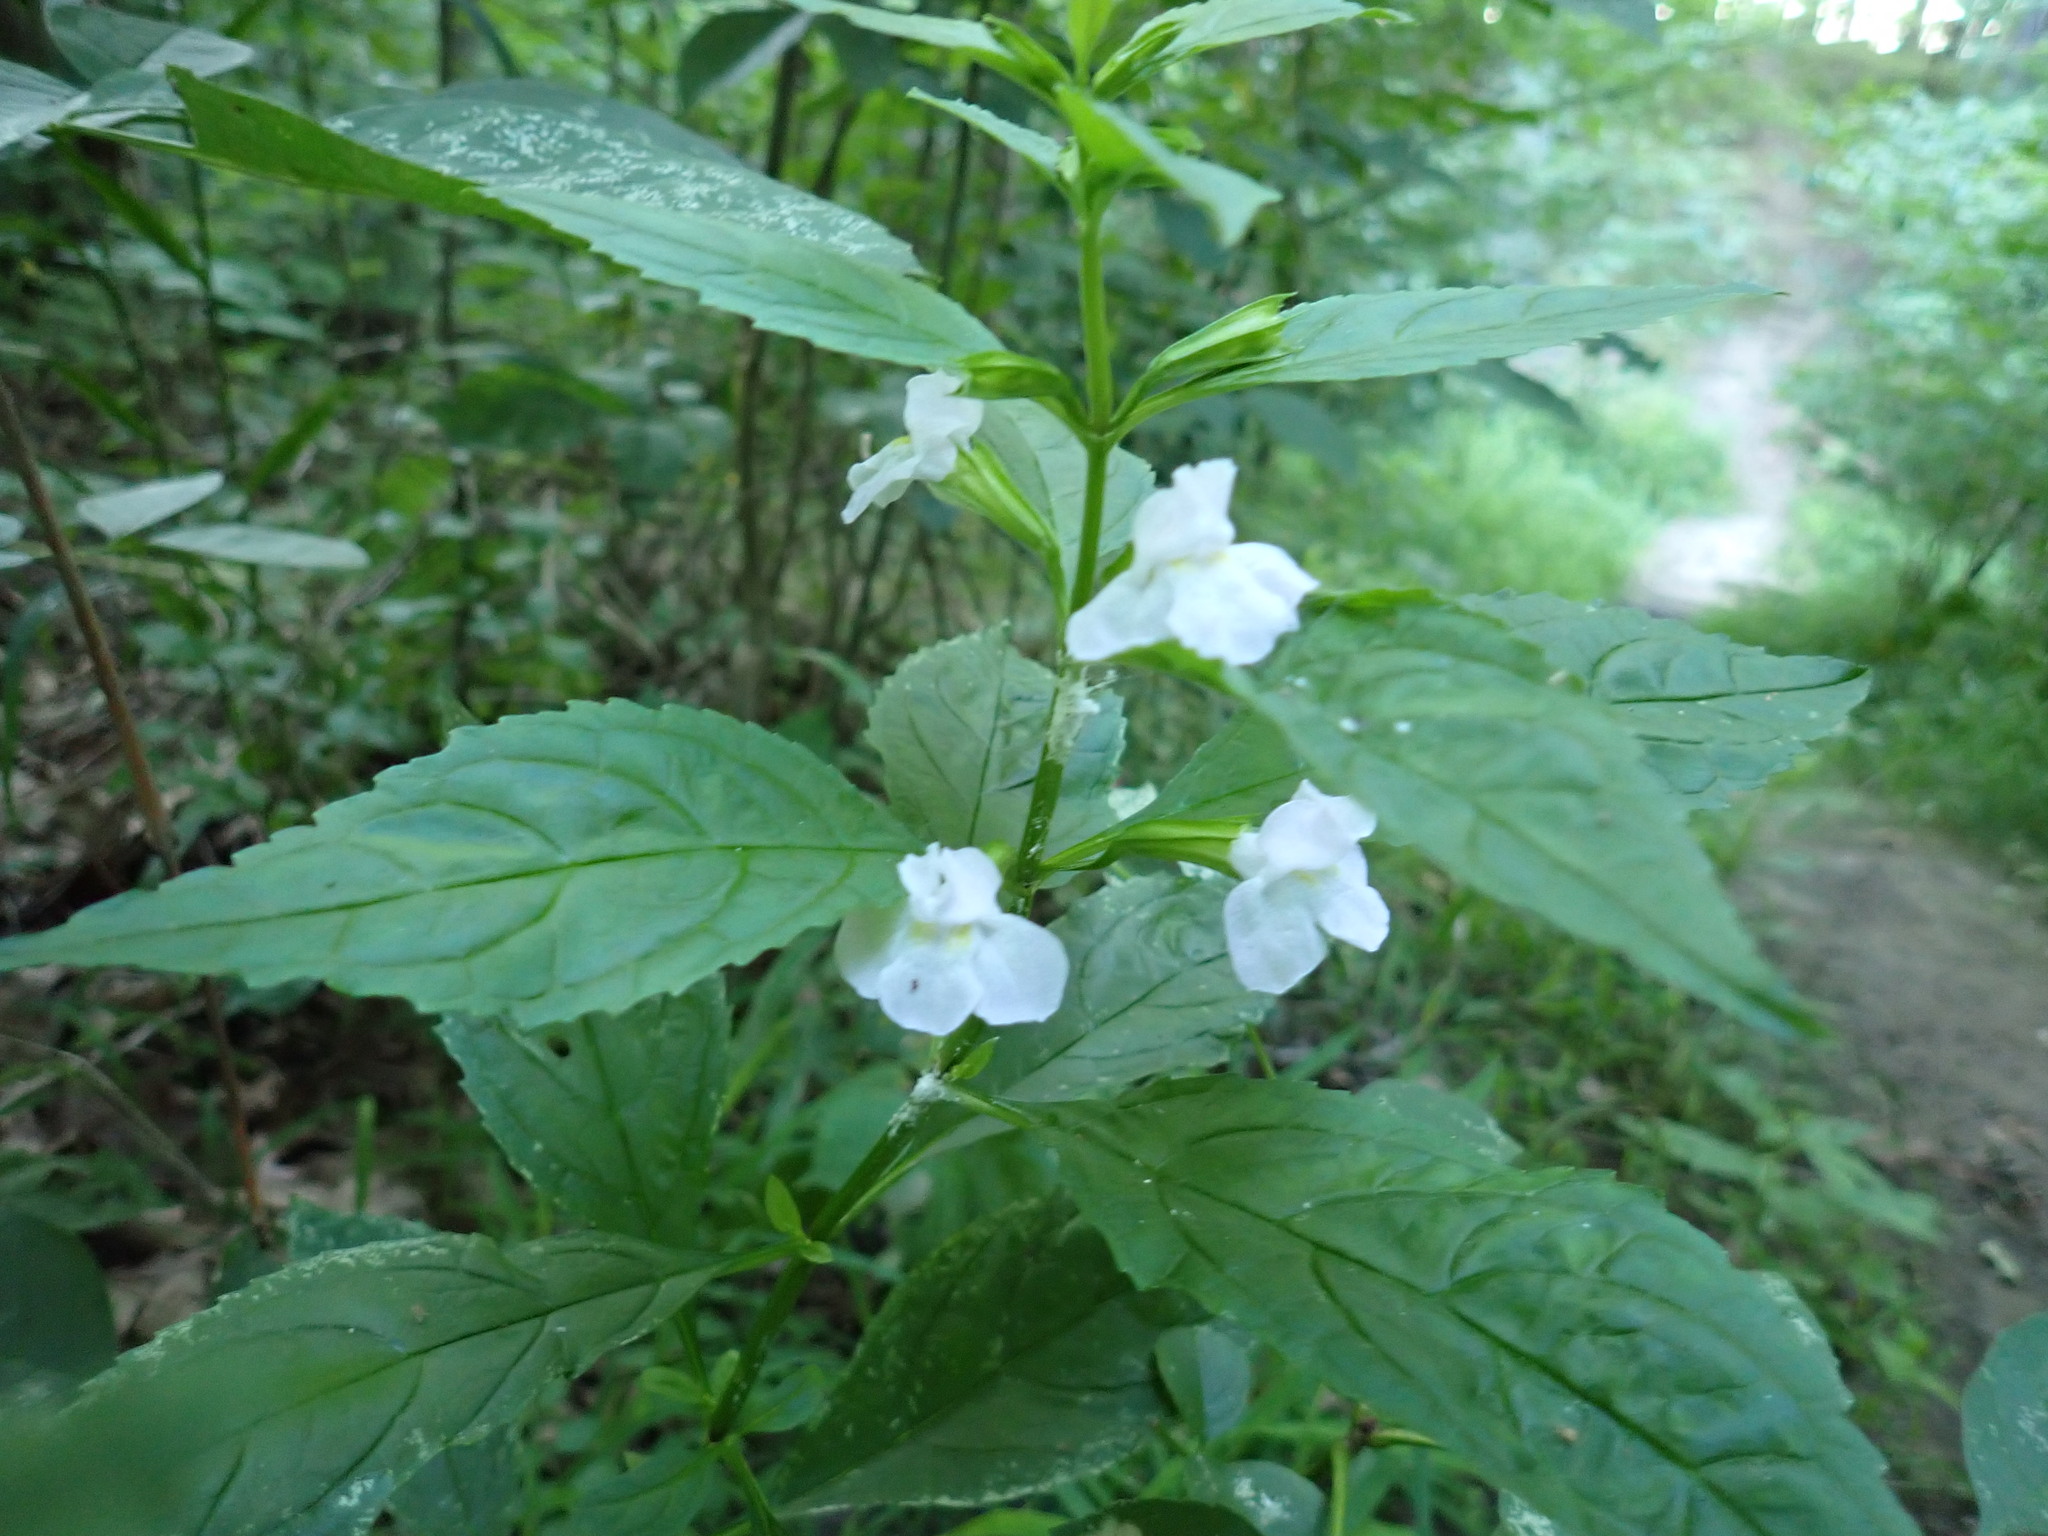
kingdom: Plantae
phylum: Tracheophyta
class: Magnoliopsida
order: Lamiales
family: Phrymaceae
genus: Mimulus
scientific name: Mimulus alatus
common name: Sharp-wing monkey-flower
